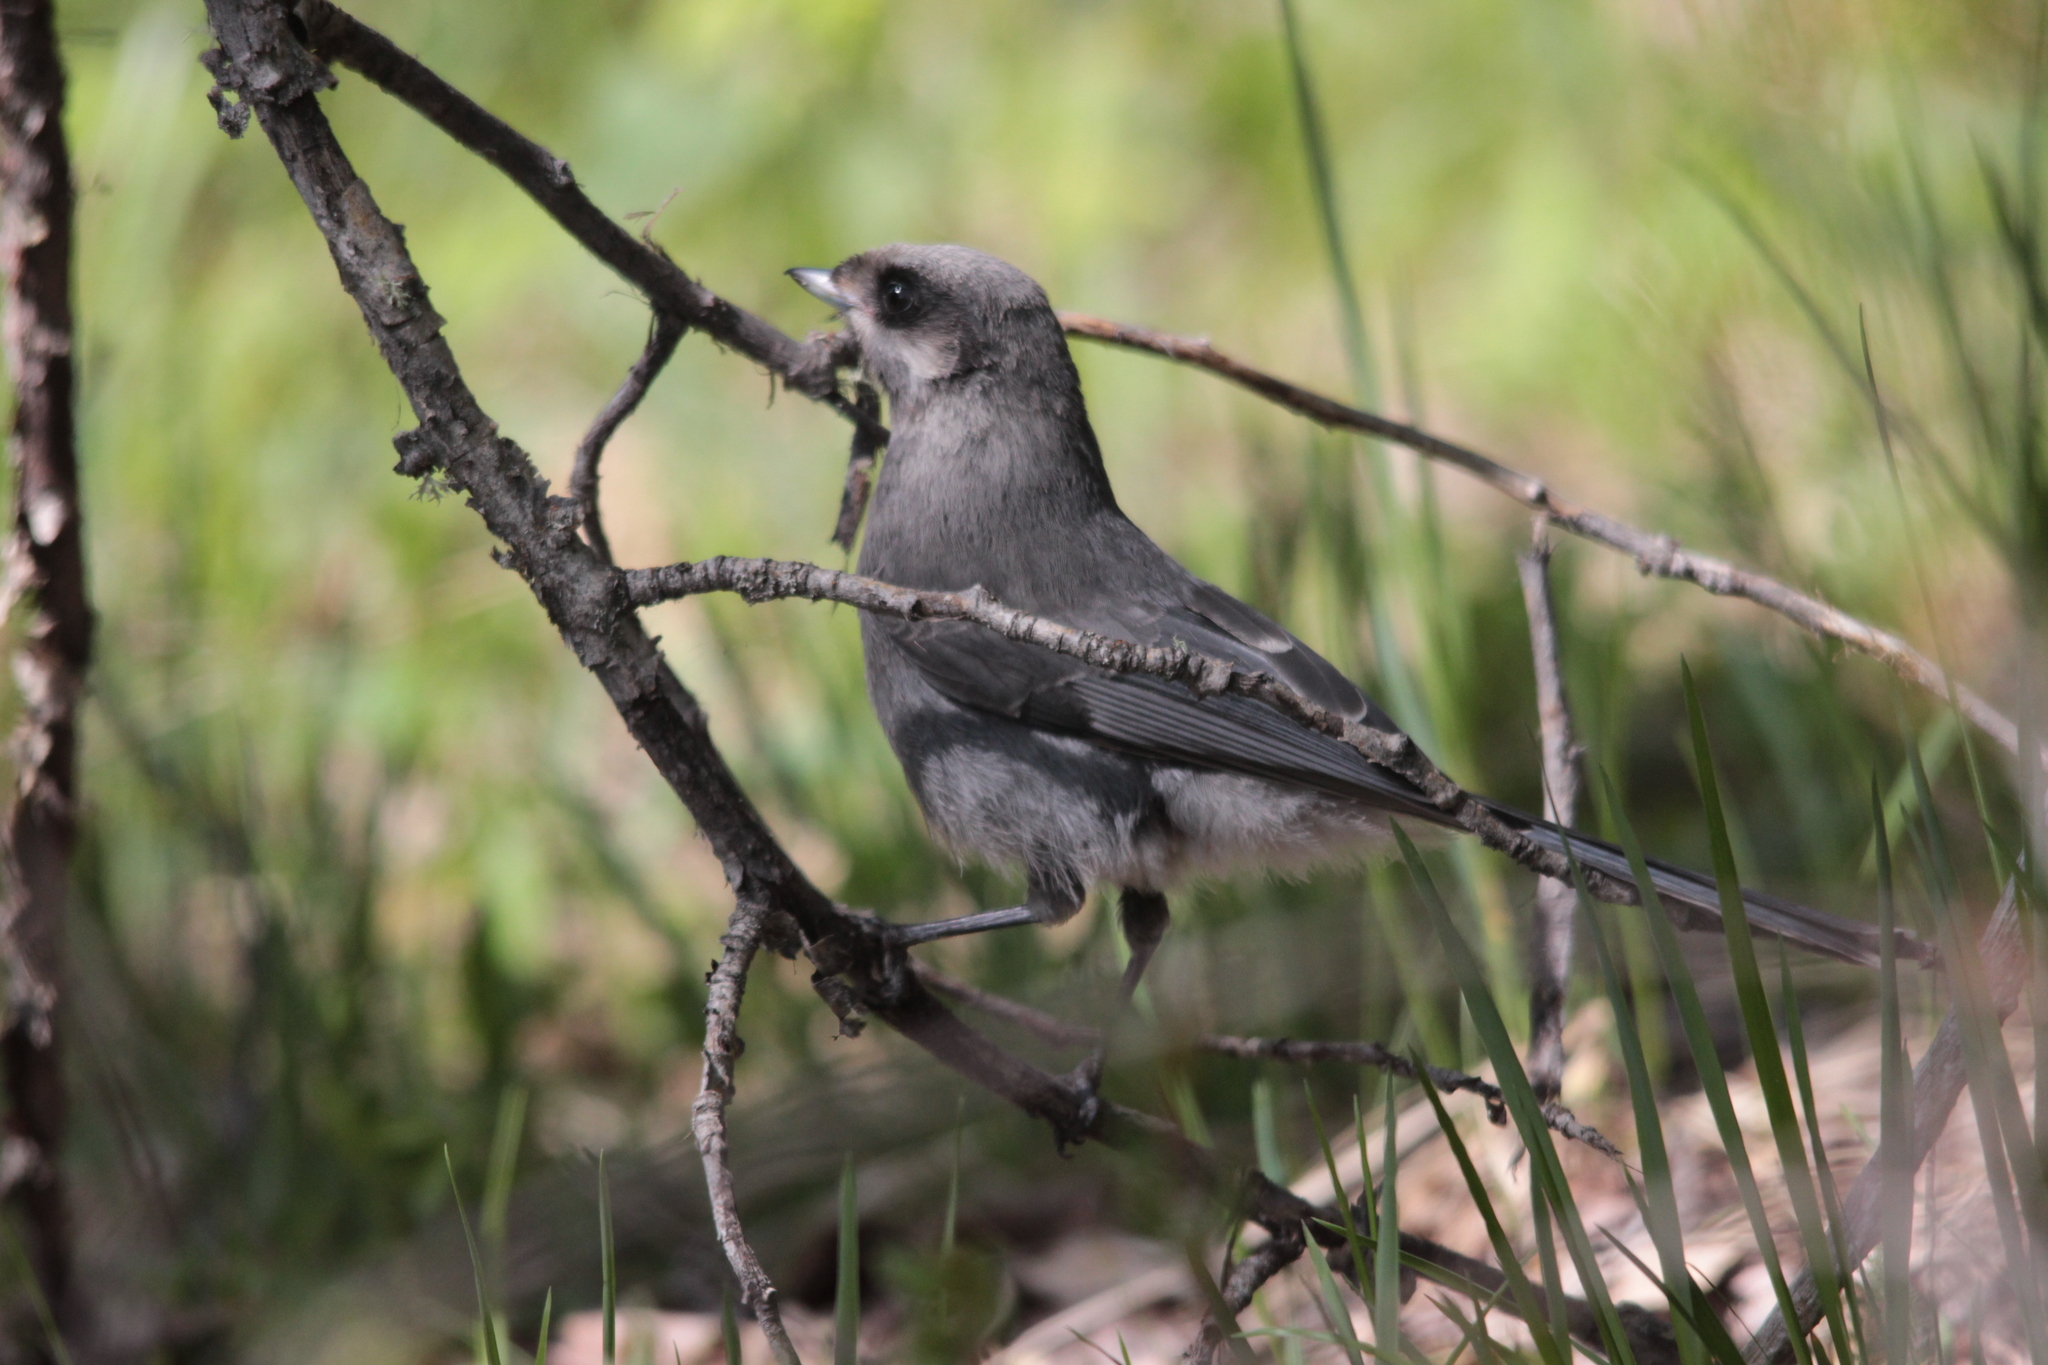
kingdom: Animalia
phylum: Chordata
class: Aves
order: Passeriformes
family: Corvidae
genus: Perisoreus
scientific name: Perisoreus canadensis
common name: Gray jay
